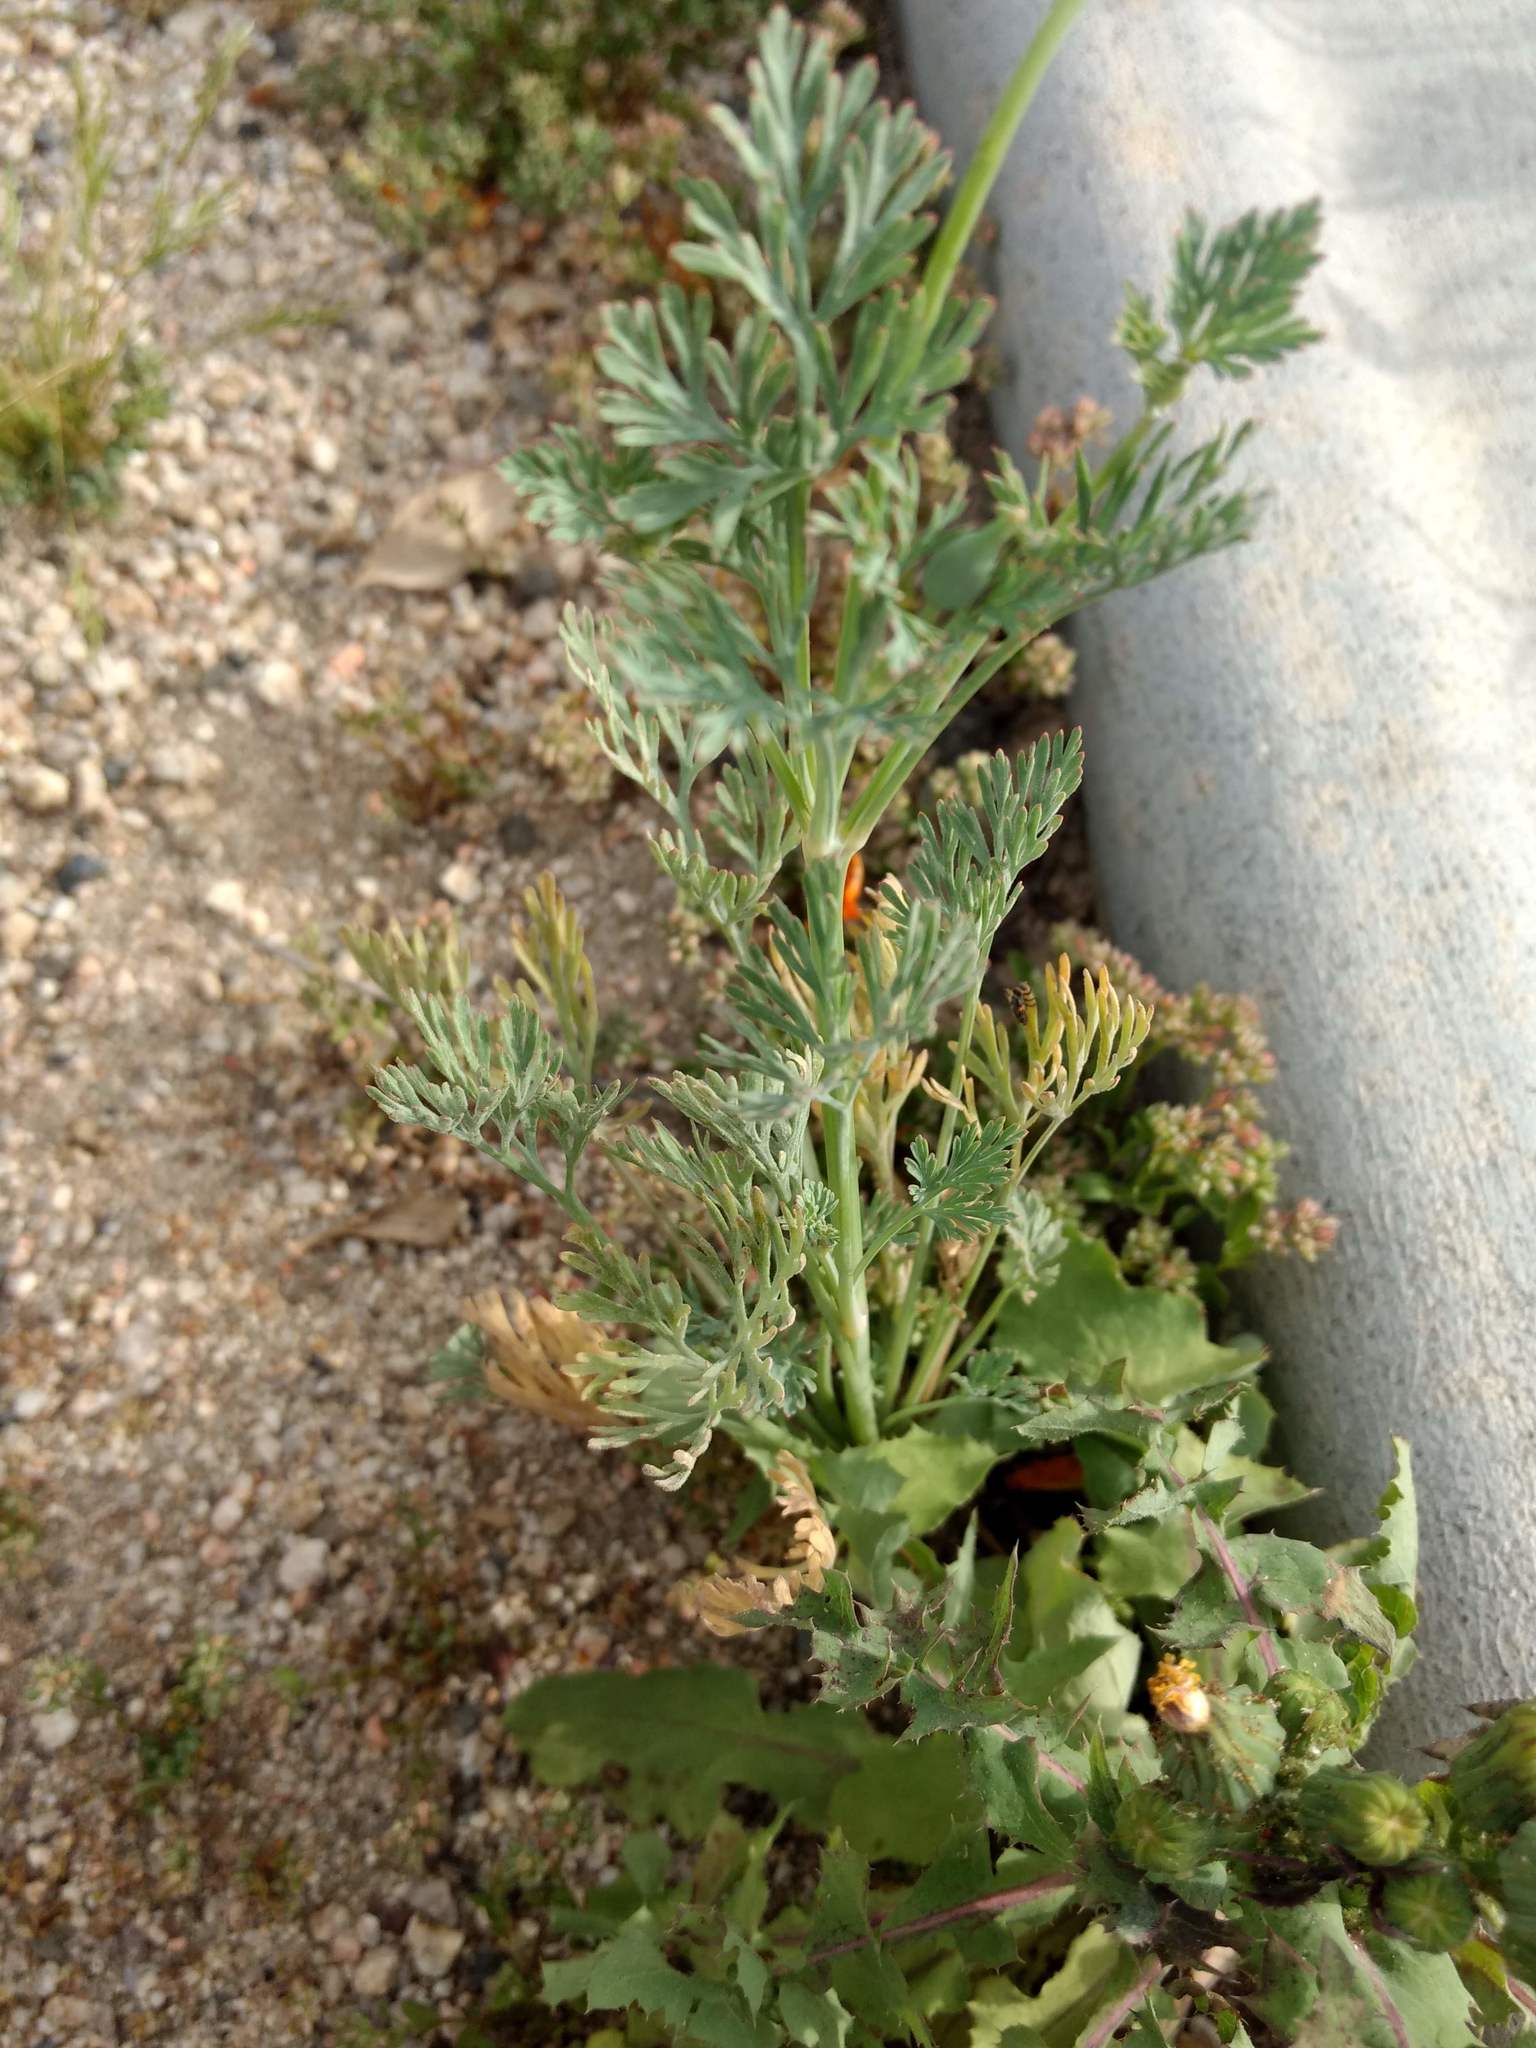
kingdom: Plantae
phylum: Tracheophyta
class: Magnoliopsida
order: Ranunculales
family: Papaveraceae
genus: Eschscholzia
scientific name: Eschscholzia californica
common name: California poppy
